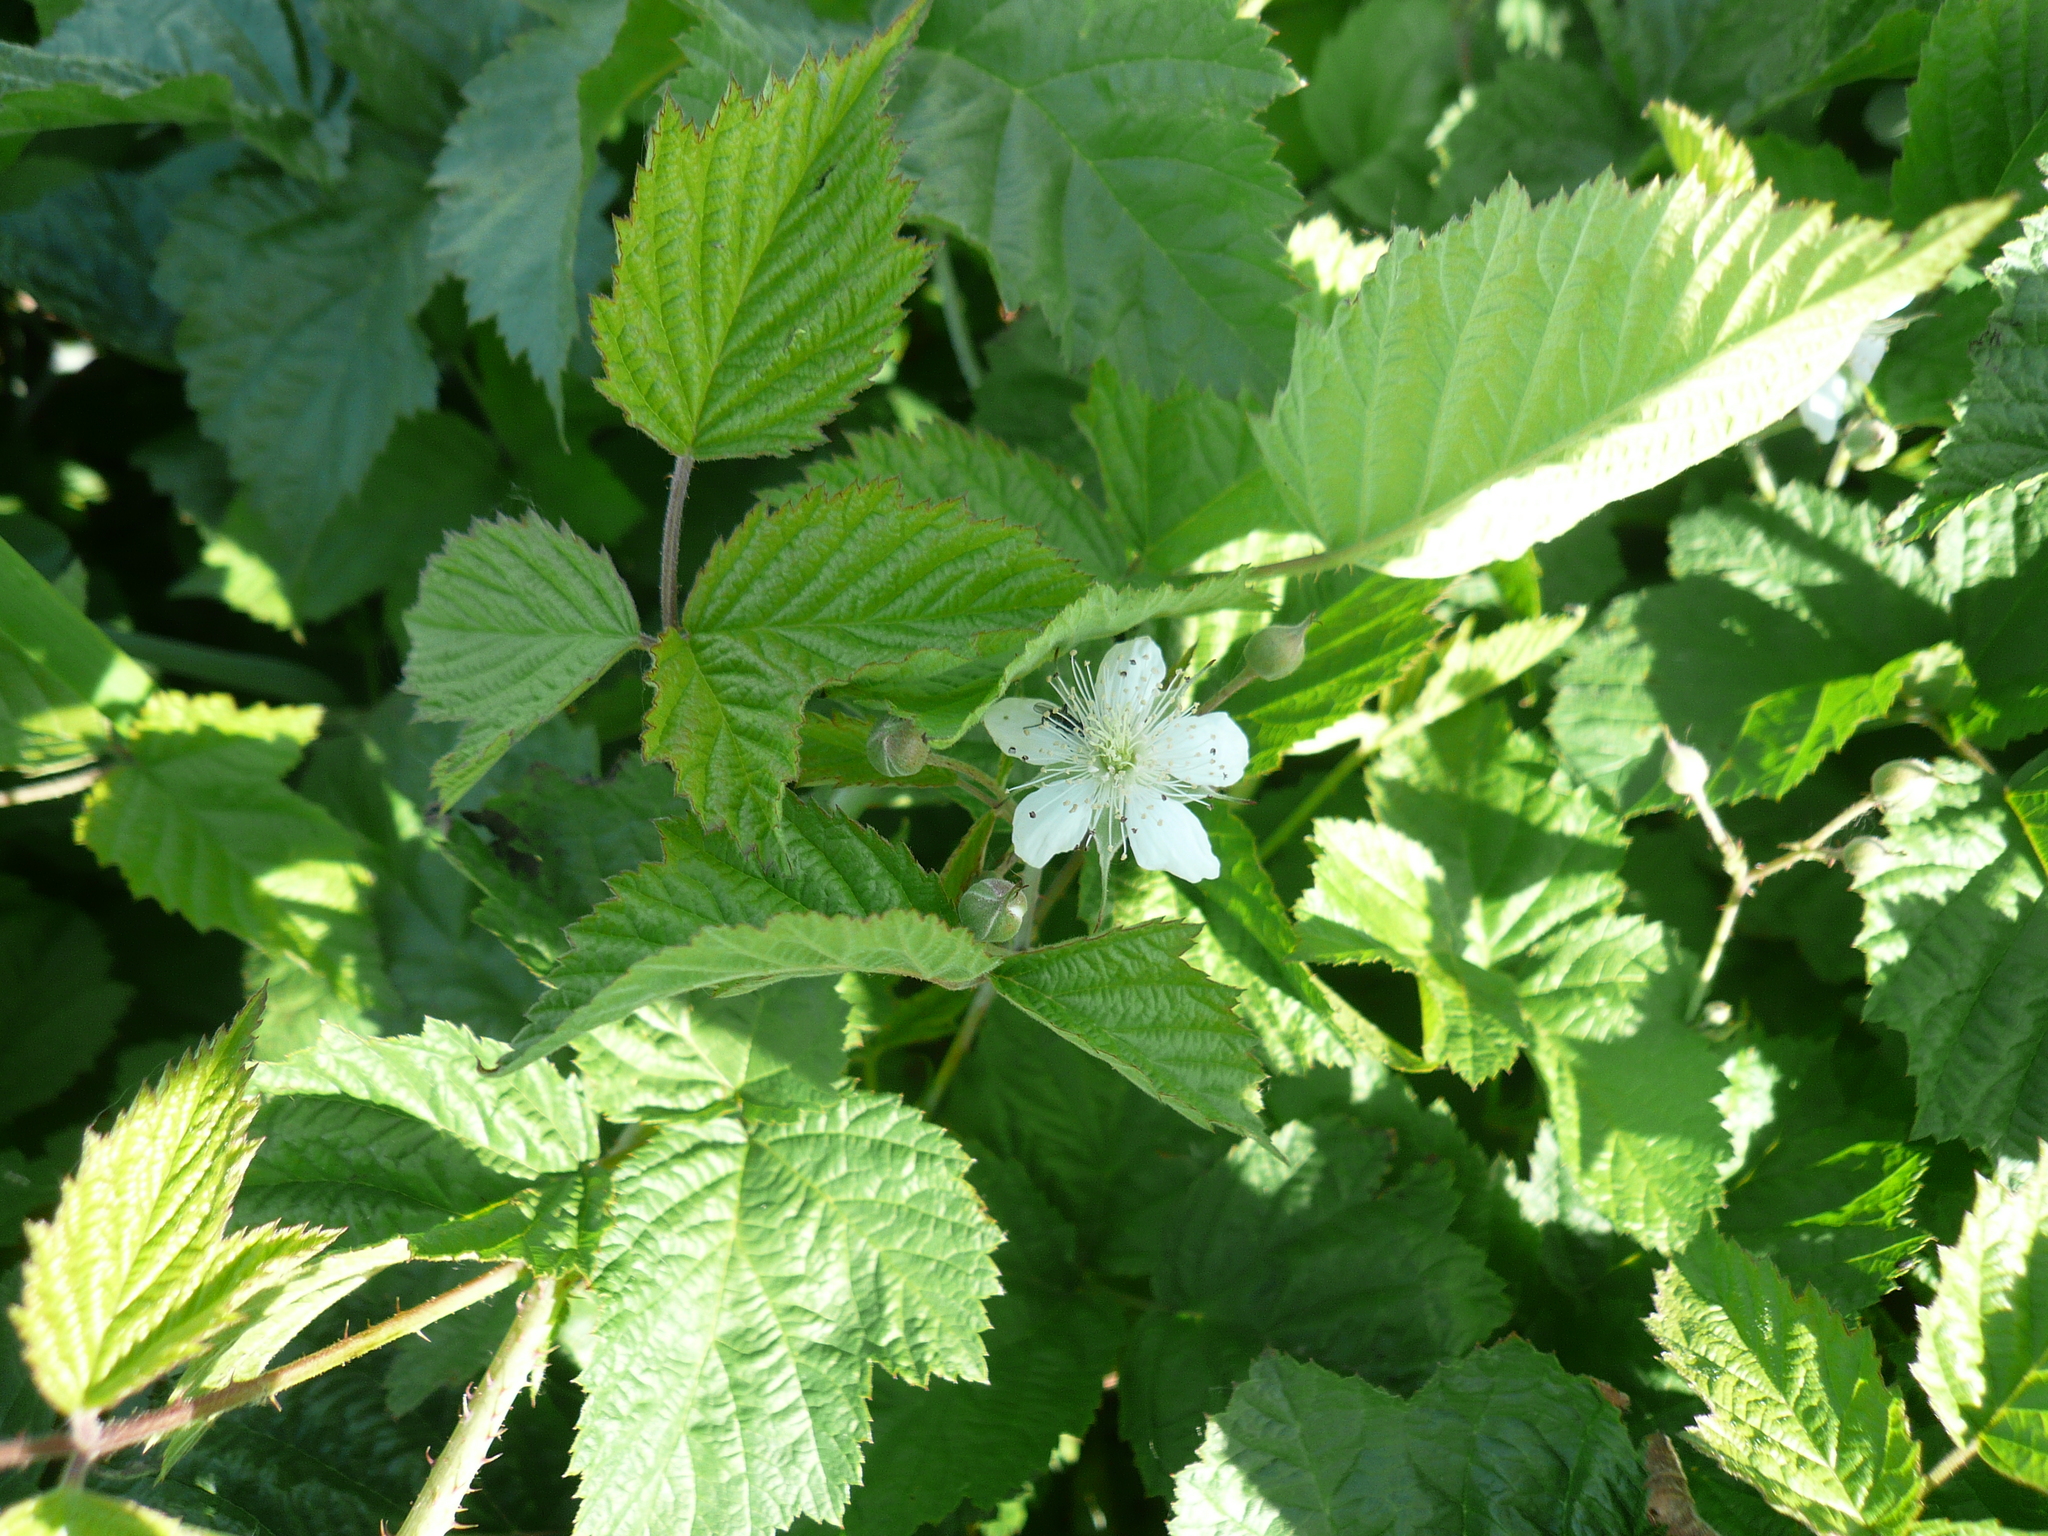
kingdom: Plantae
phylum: Tracheophyta
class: Magnoliopsida
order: Rosales
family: Rosaceae
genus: Rubus
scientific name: Rubus caesius
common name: Dewberry
